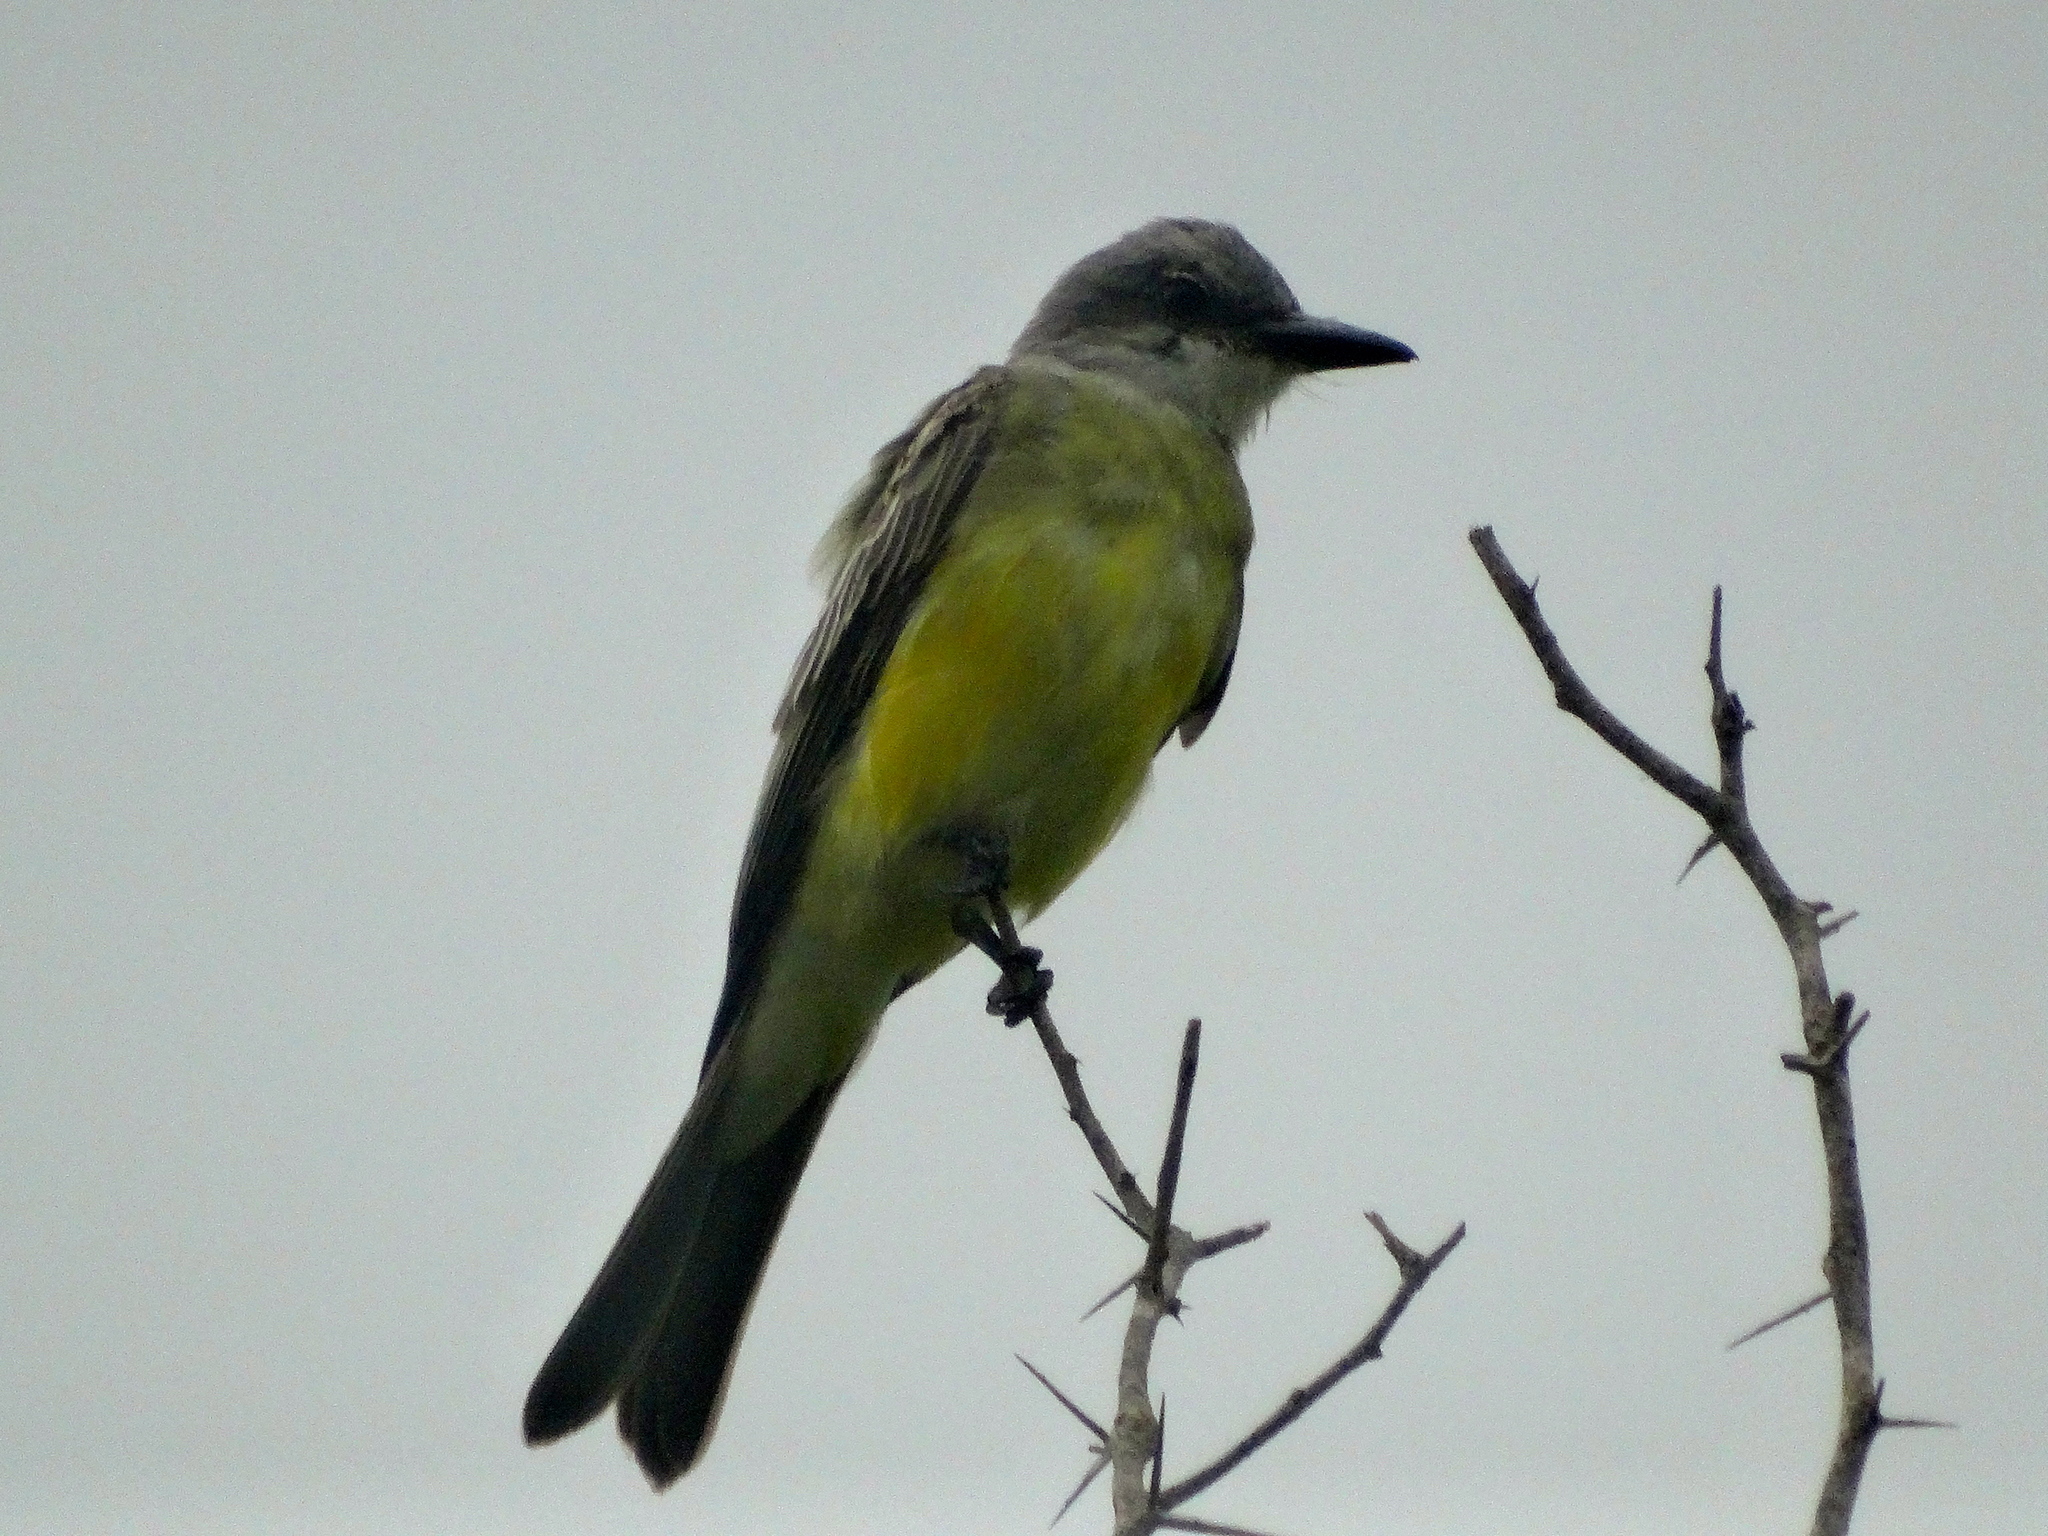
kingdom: Animalia
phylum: Chordata
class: Aves
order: Passeriformes
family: Tyrannidae
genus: Tyrannus
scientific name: Tyrannus melancholicus
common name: Tropical kingbird
